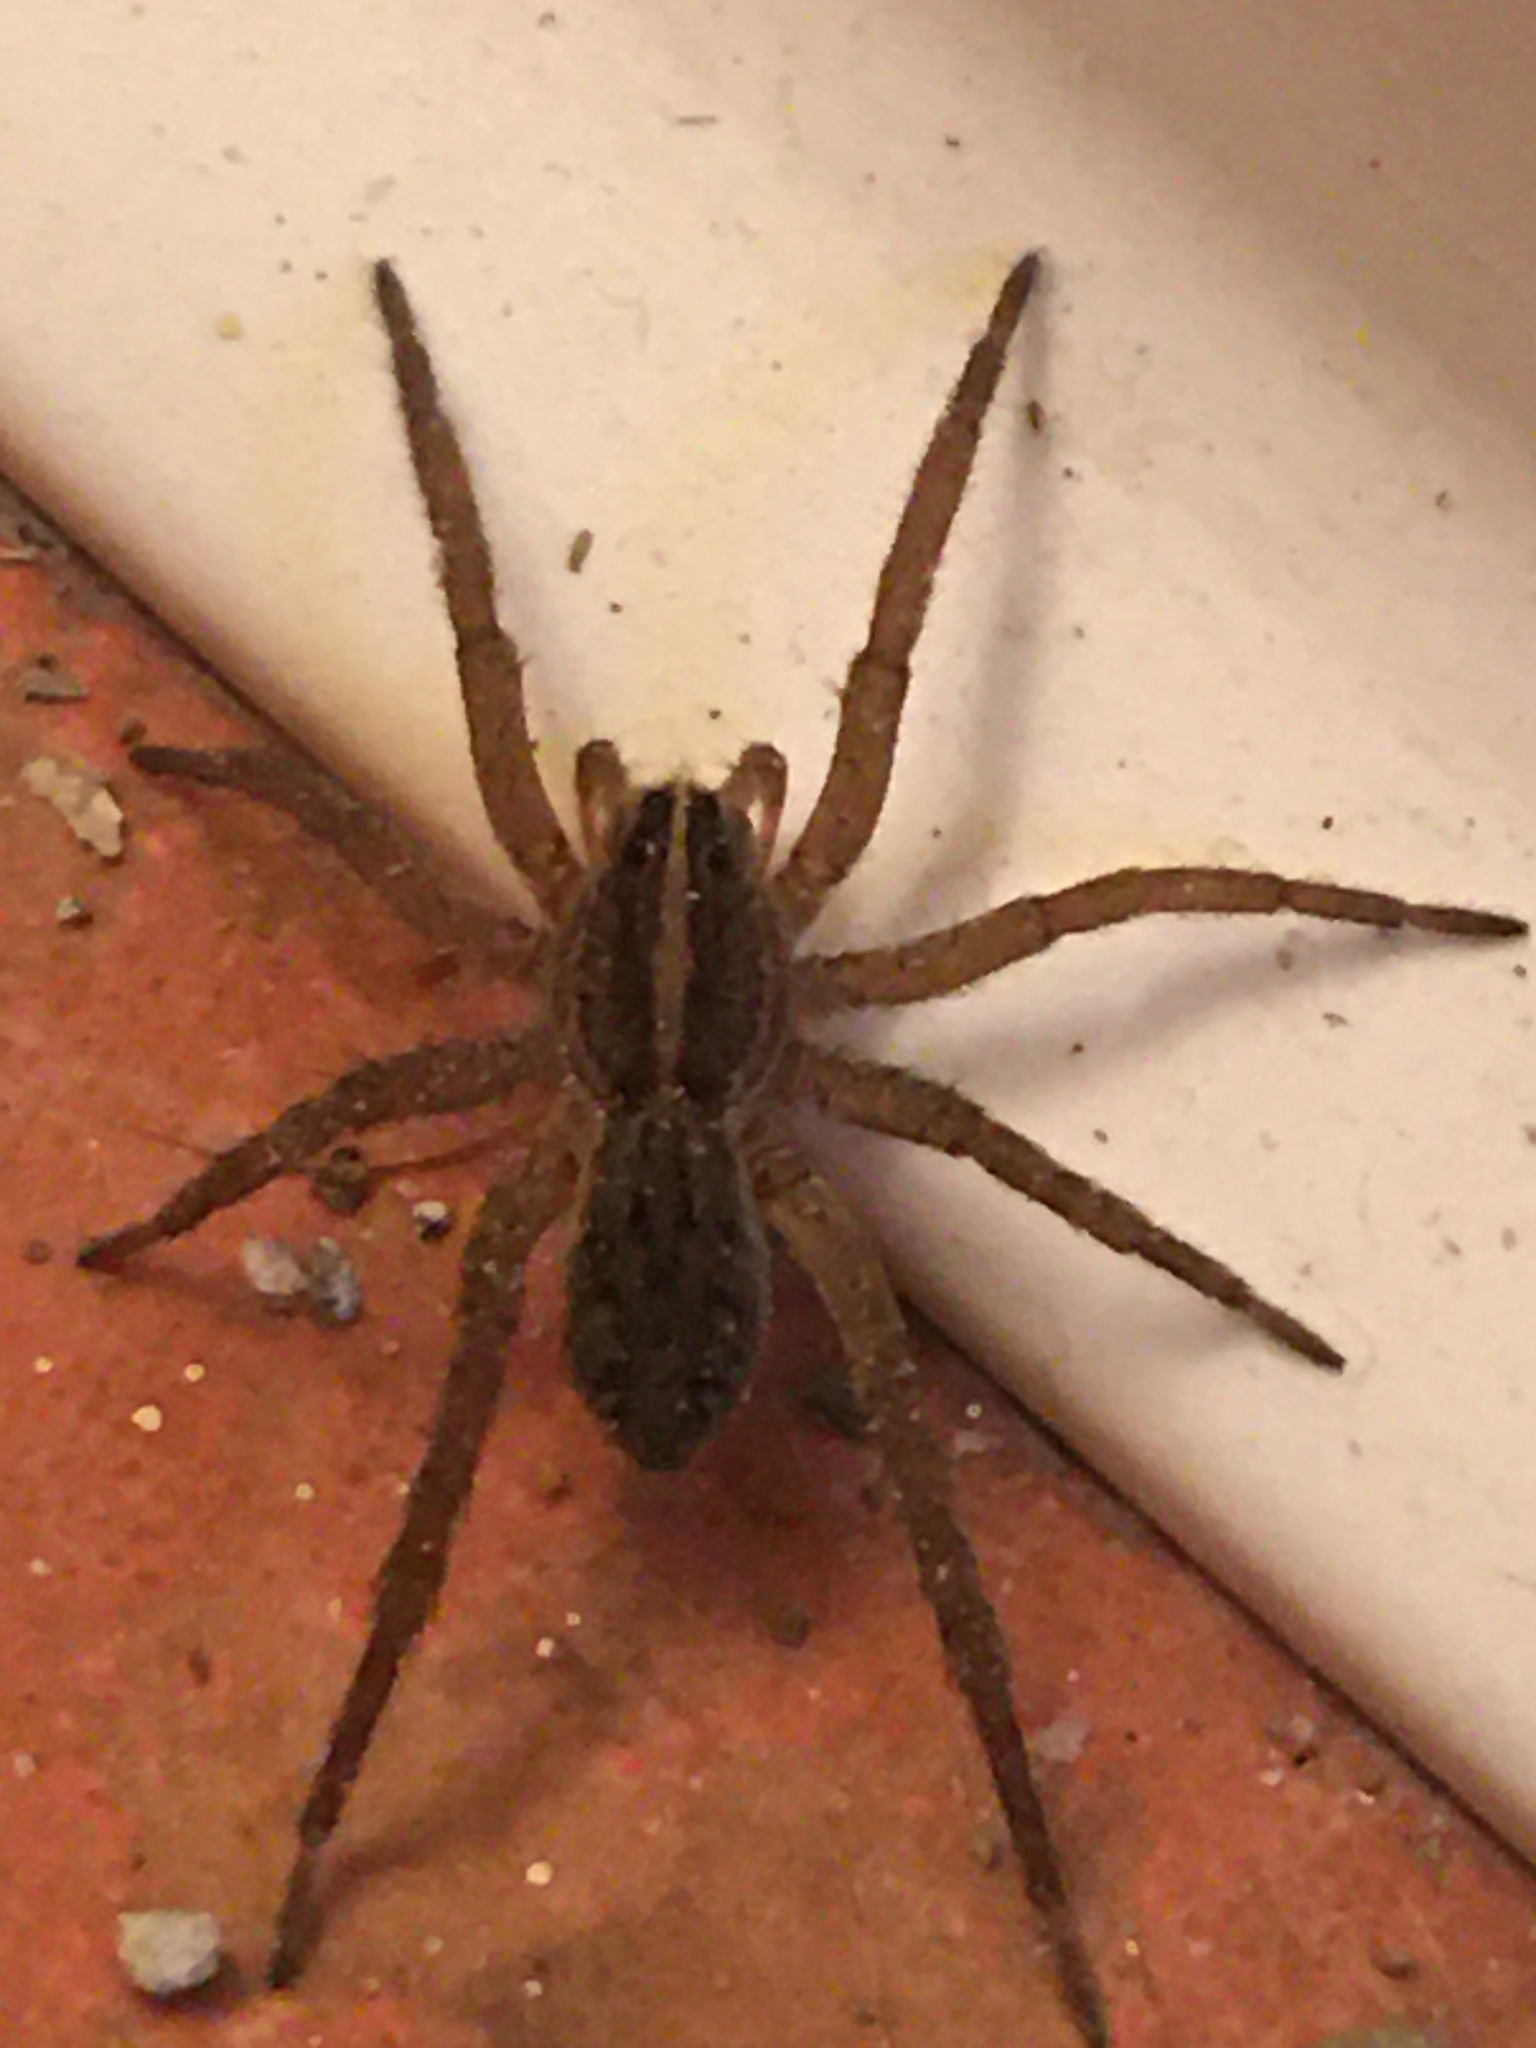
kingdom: Animalia
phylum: Arthropoda
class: Arachnida
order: Araneae
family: Lycosidae
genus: Tigrosa
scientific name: Tigrosa helluo
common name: Wetland giant wolf spider
